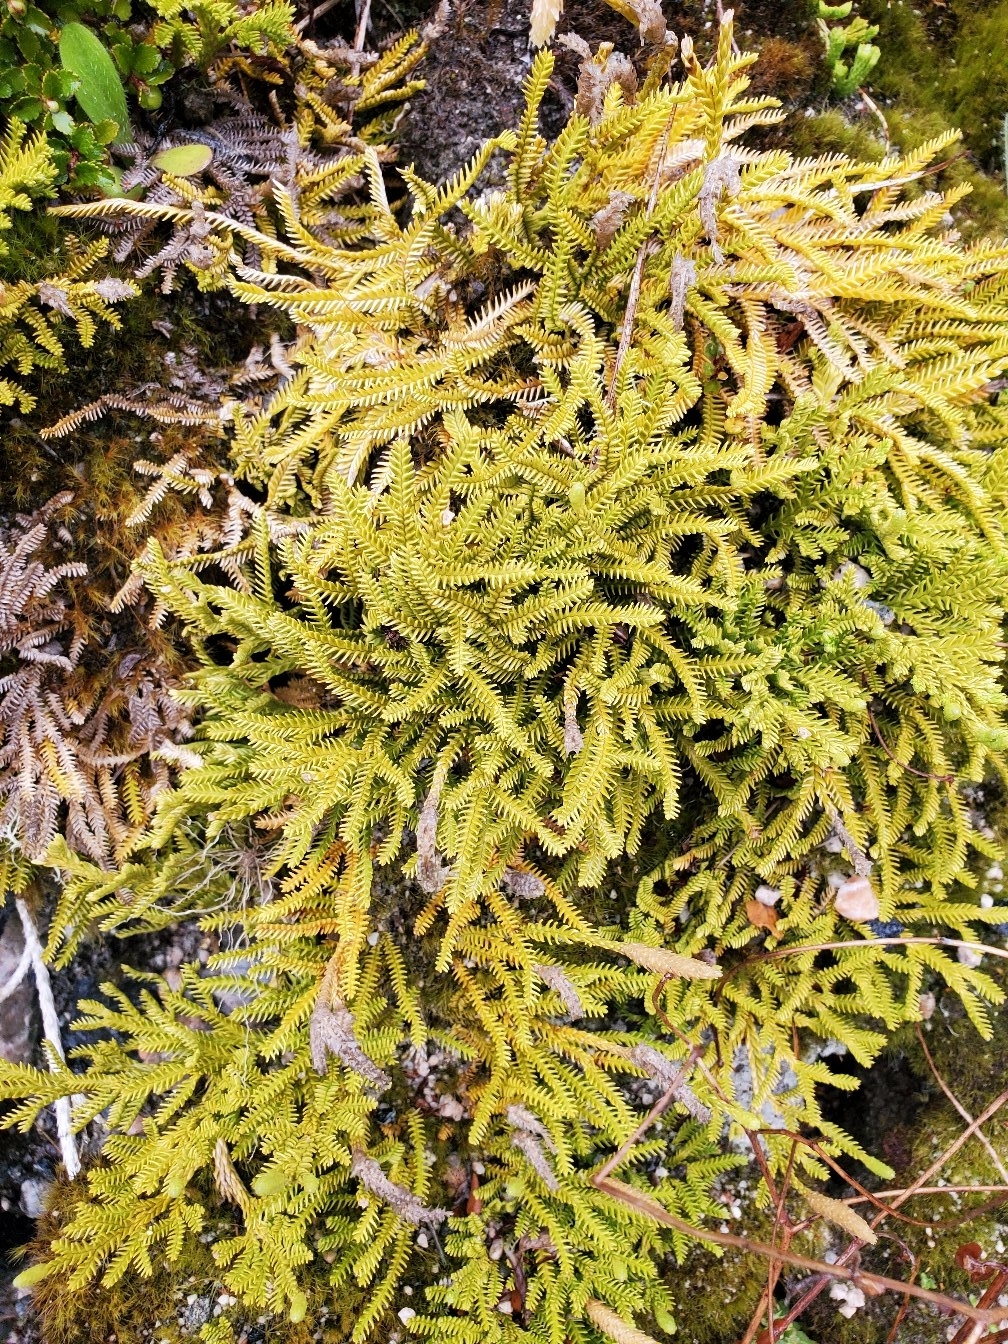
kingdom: Plantae
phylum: Tracheophyta
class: Lycopodiopsida
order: Lycopodiales
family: Lycopodiaceae
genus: Diphasium
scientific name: Diphasium scariosum
